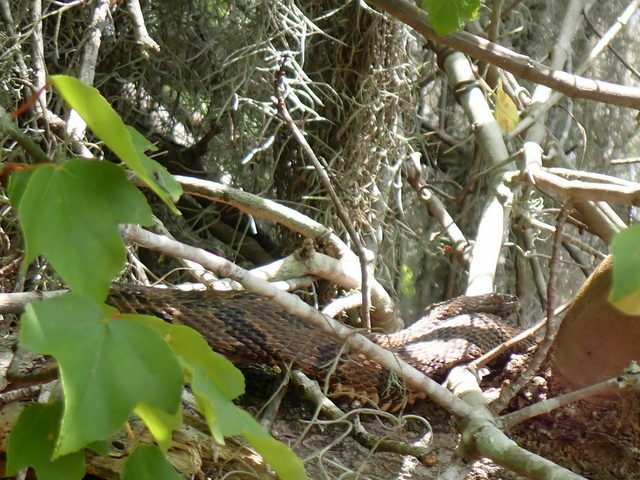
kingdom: Animalia
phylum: Chordata
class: Squamata
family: Colubridae
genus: Nerodia
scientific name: Nerodia taxispilota
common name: Brown water snake
